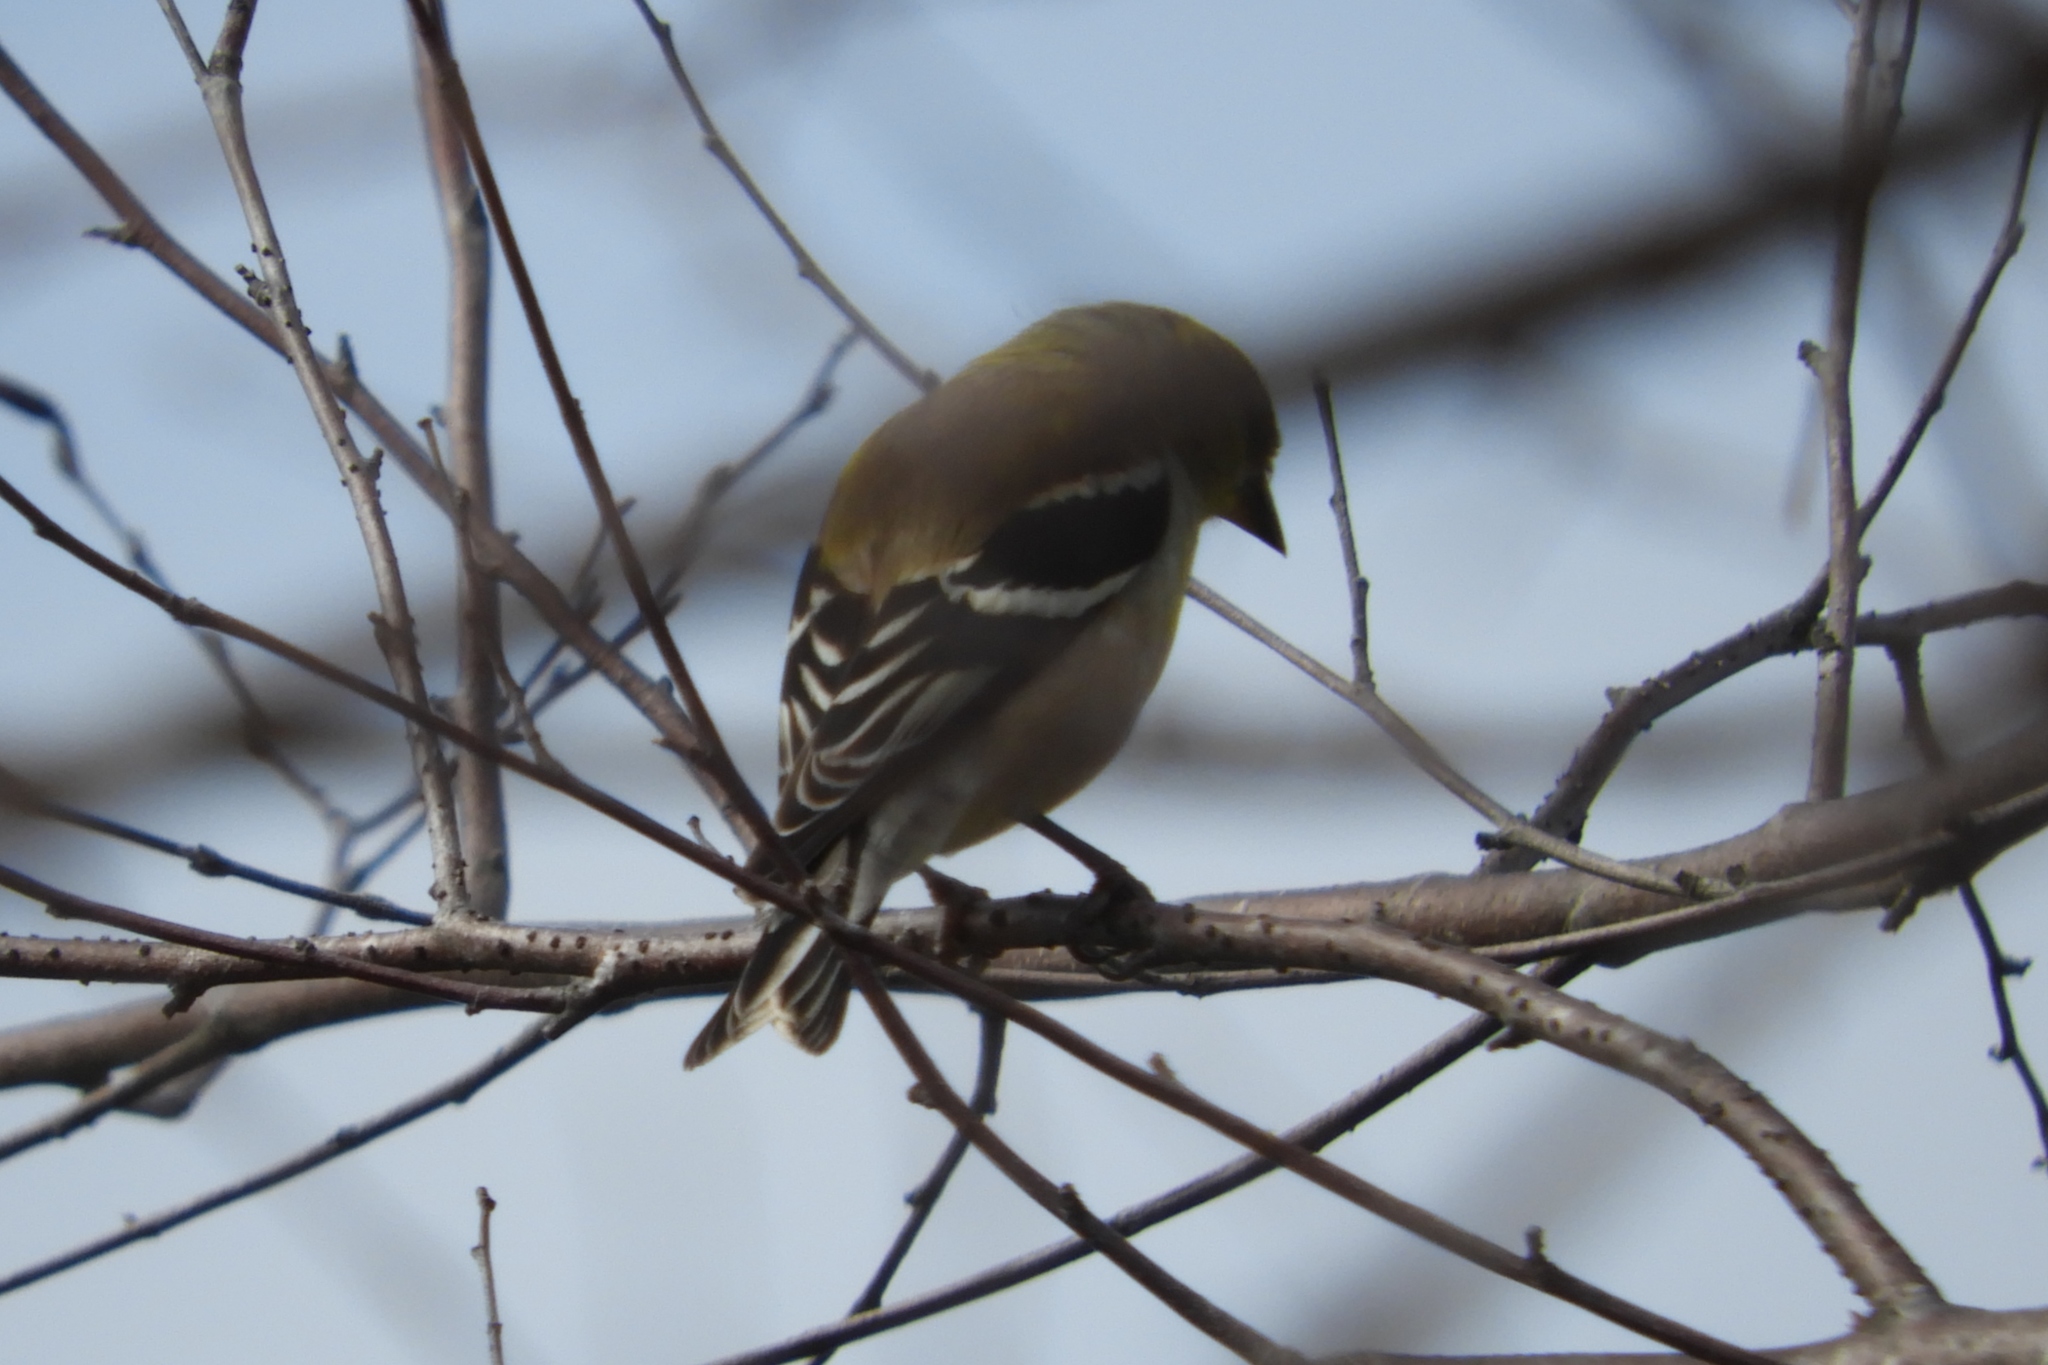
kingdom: Animalia
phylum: Chordata
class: Aves
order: Passeriformes
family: Fringillidae
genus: Spinus
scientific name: Spinus tristis
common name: American goldfinch
